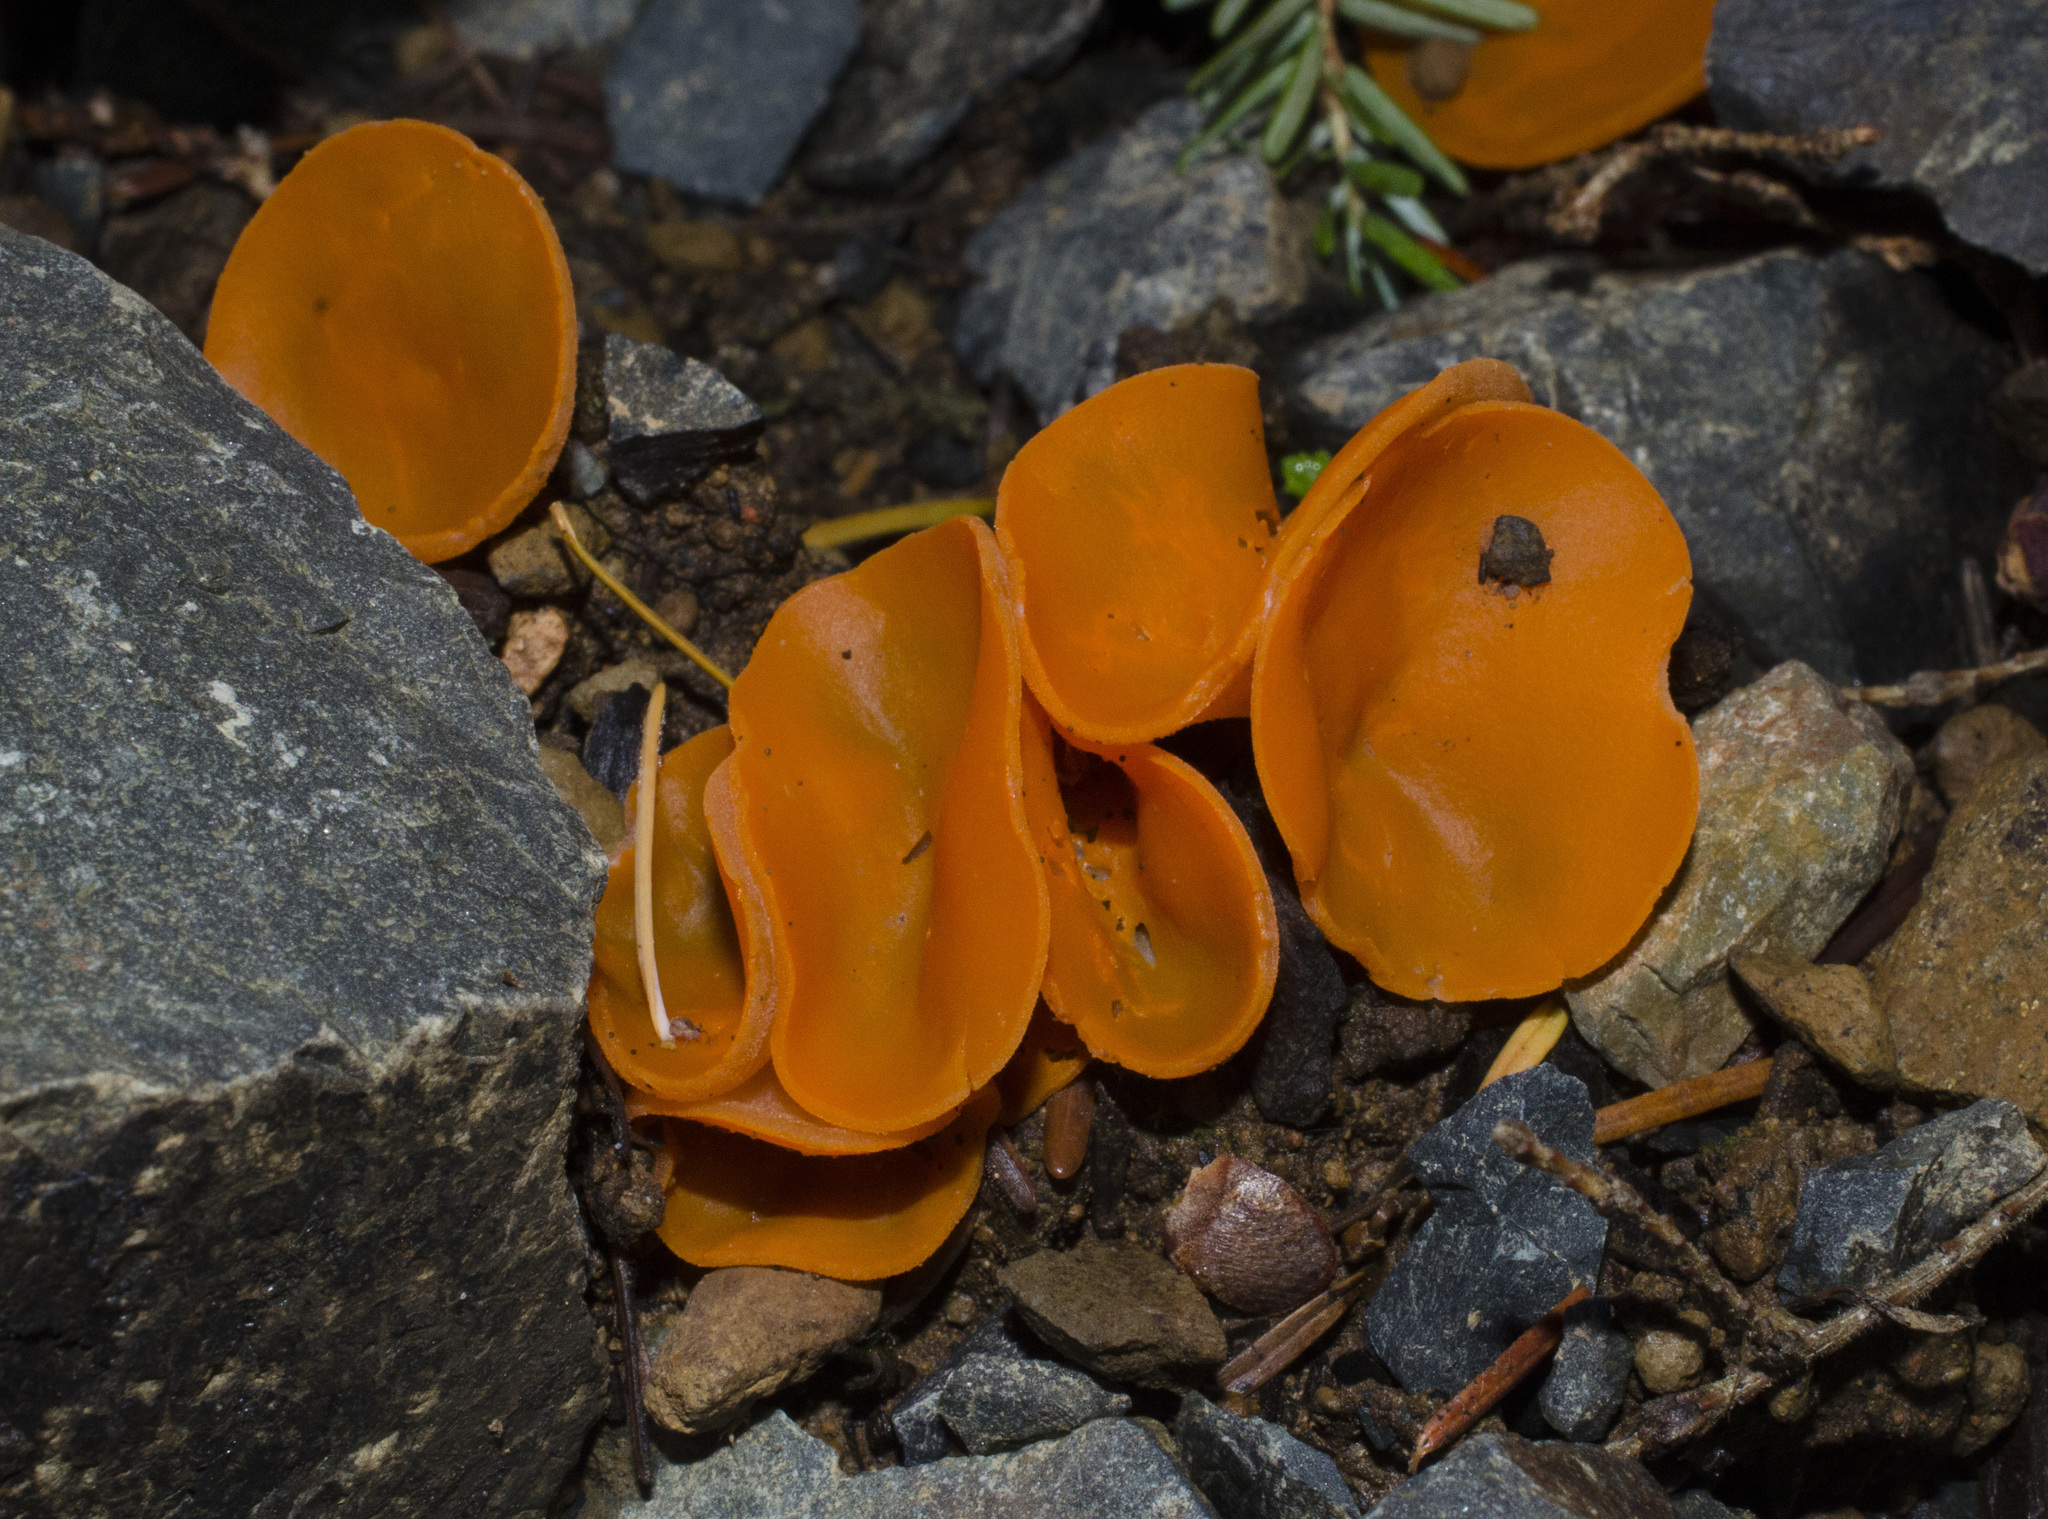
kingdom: Fungi
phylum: Ascomycota
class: Pezizomycetes
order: Pezizales
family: Pyronemataceae
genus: Aleuria
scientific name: Aleuria aurantia
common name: Orange peel fungus
